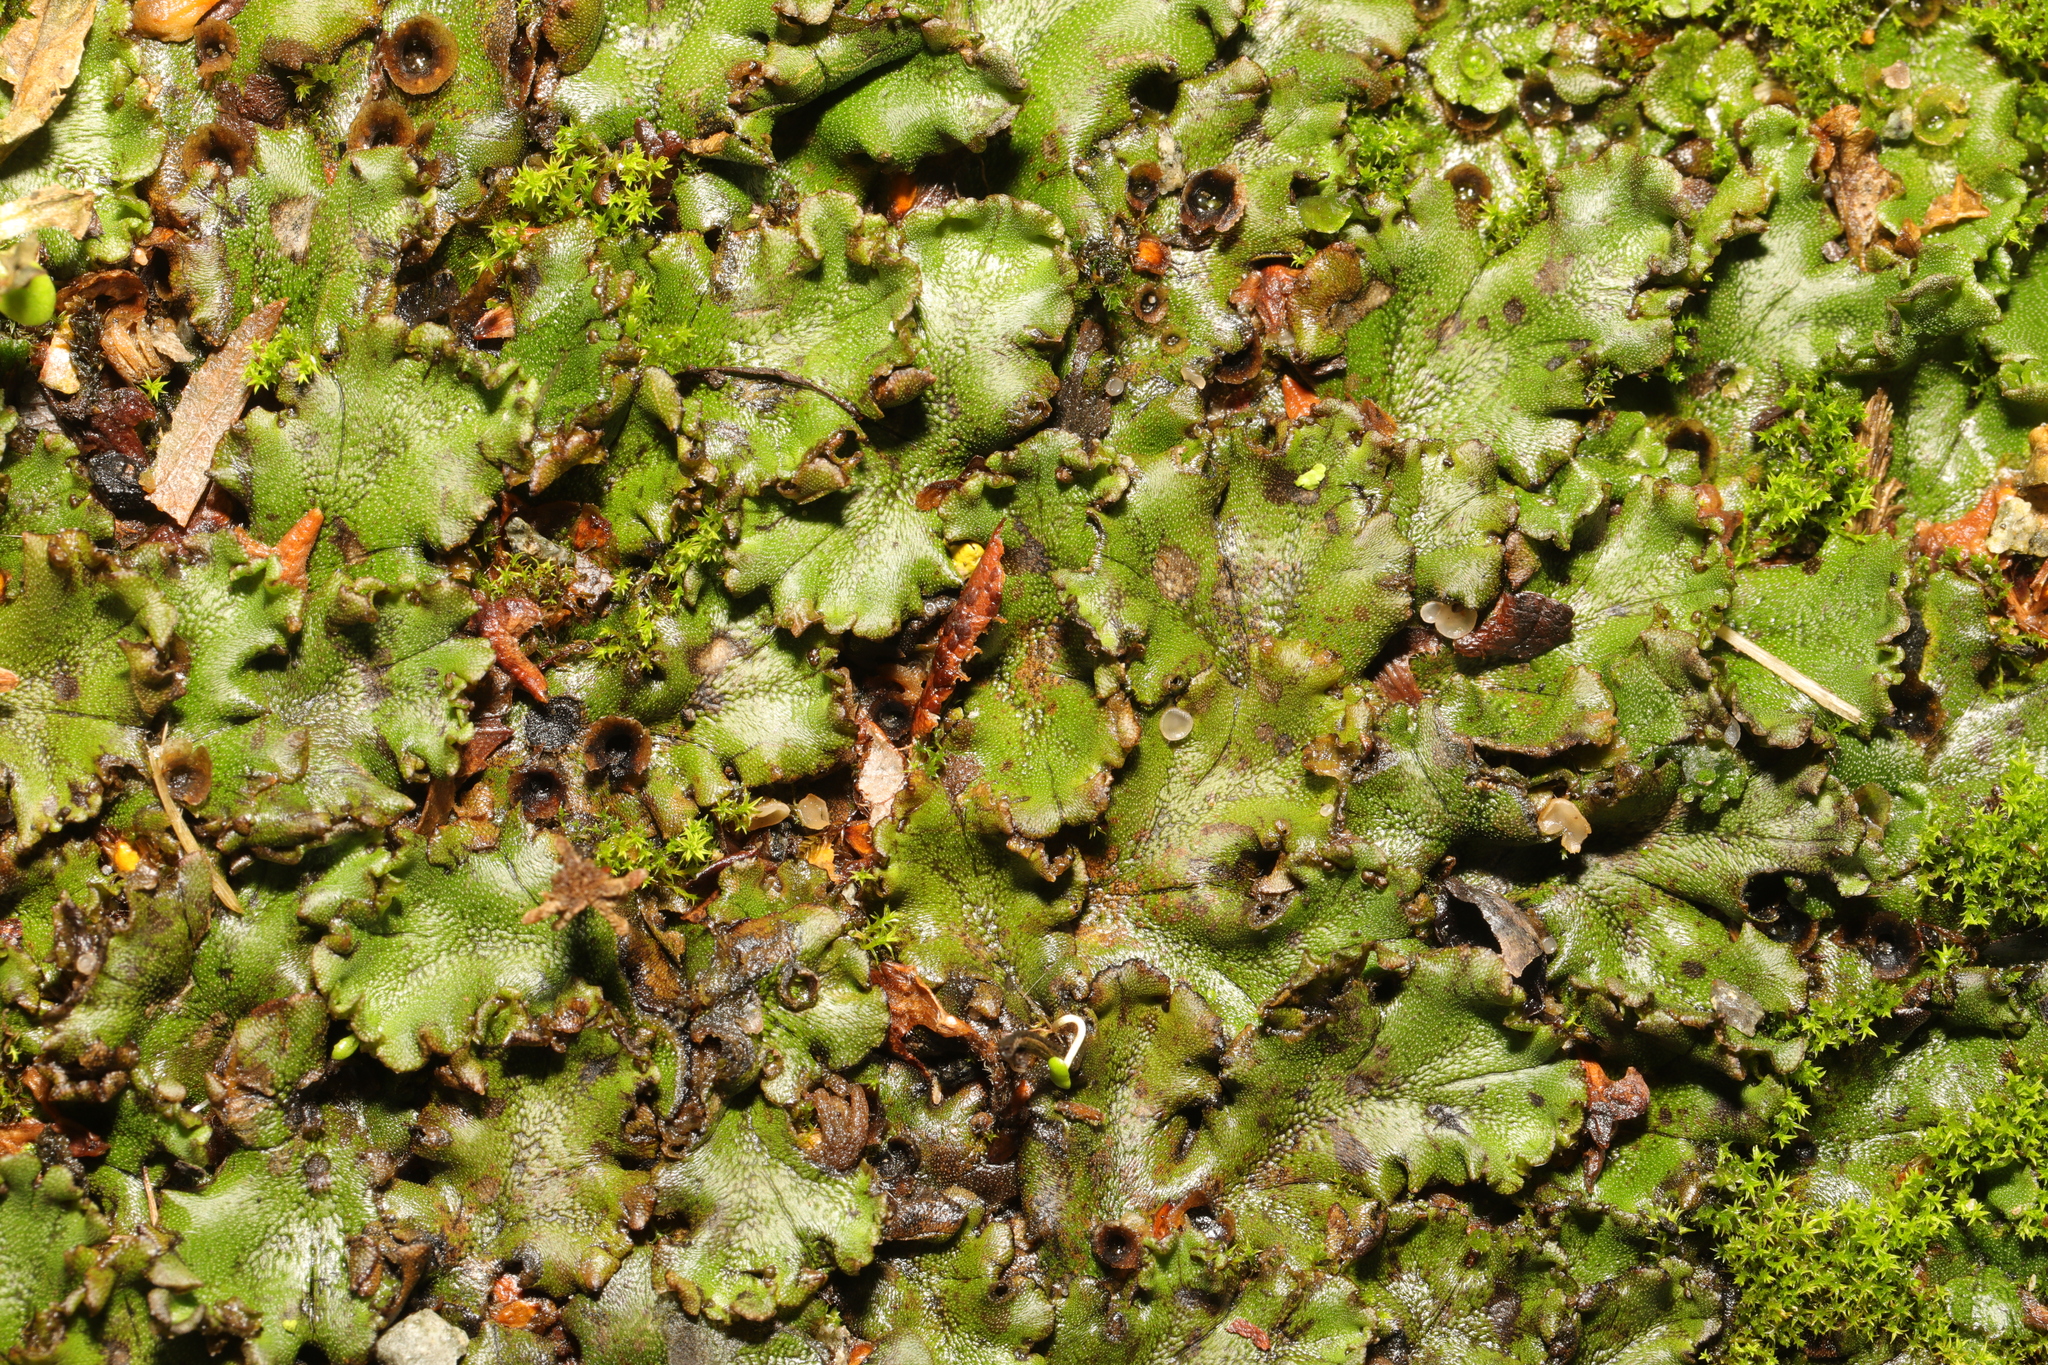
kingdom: Plantae
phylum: Marchantiophyta
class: Marchantiopsida
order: Marchantiales
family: Marchantiaceae
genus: Marchantia
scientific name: Marchantia polymorpha
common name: Common liverwort
